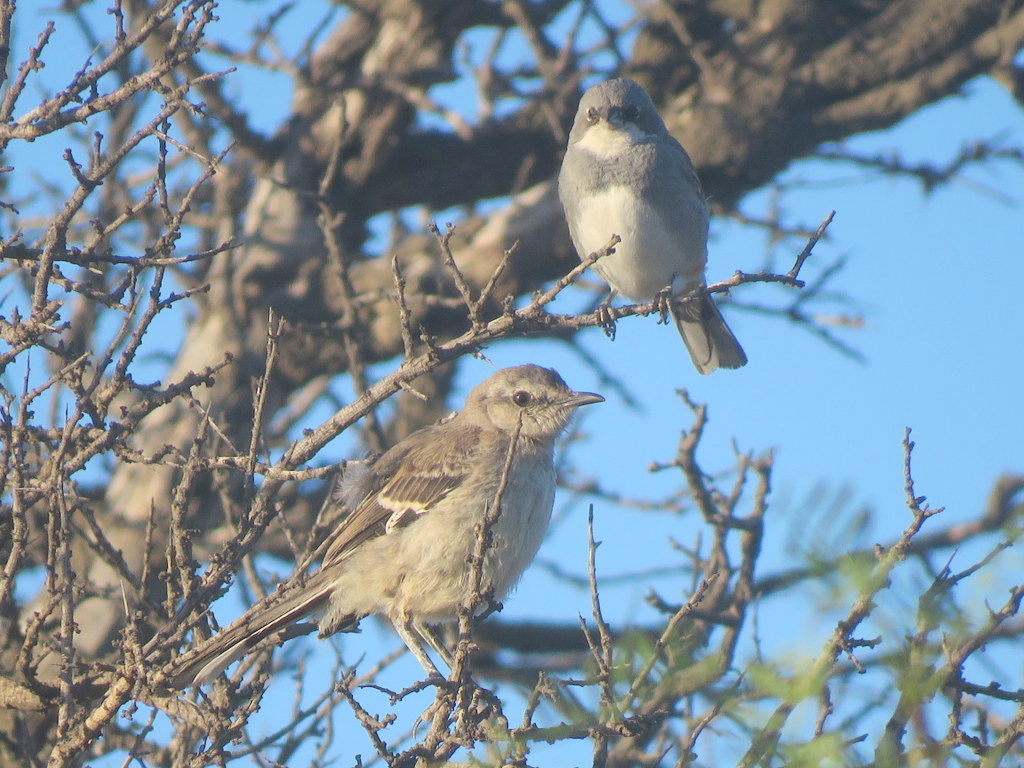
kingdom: Animalia
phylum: Chordata
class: Aves
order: Passeriformes
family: Mimidae
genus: Mimus
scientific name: Mimus patagonicus
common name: Patagonian mockingbird
